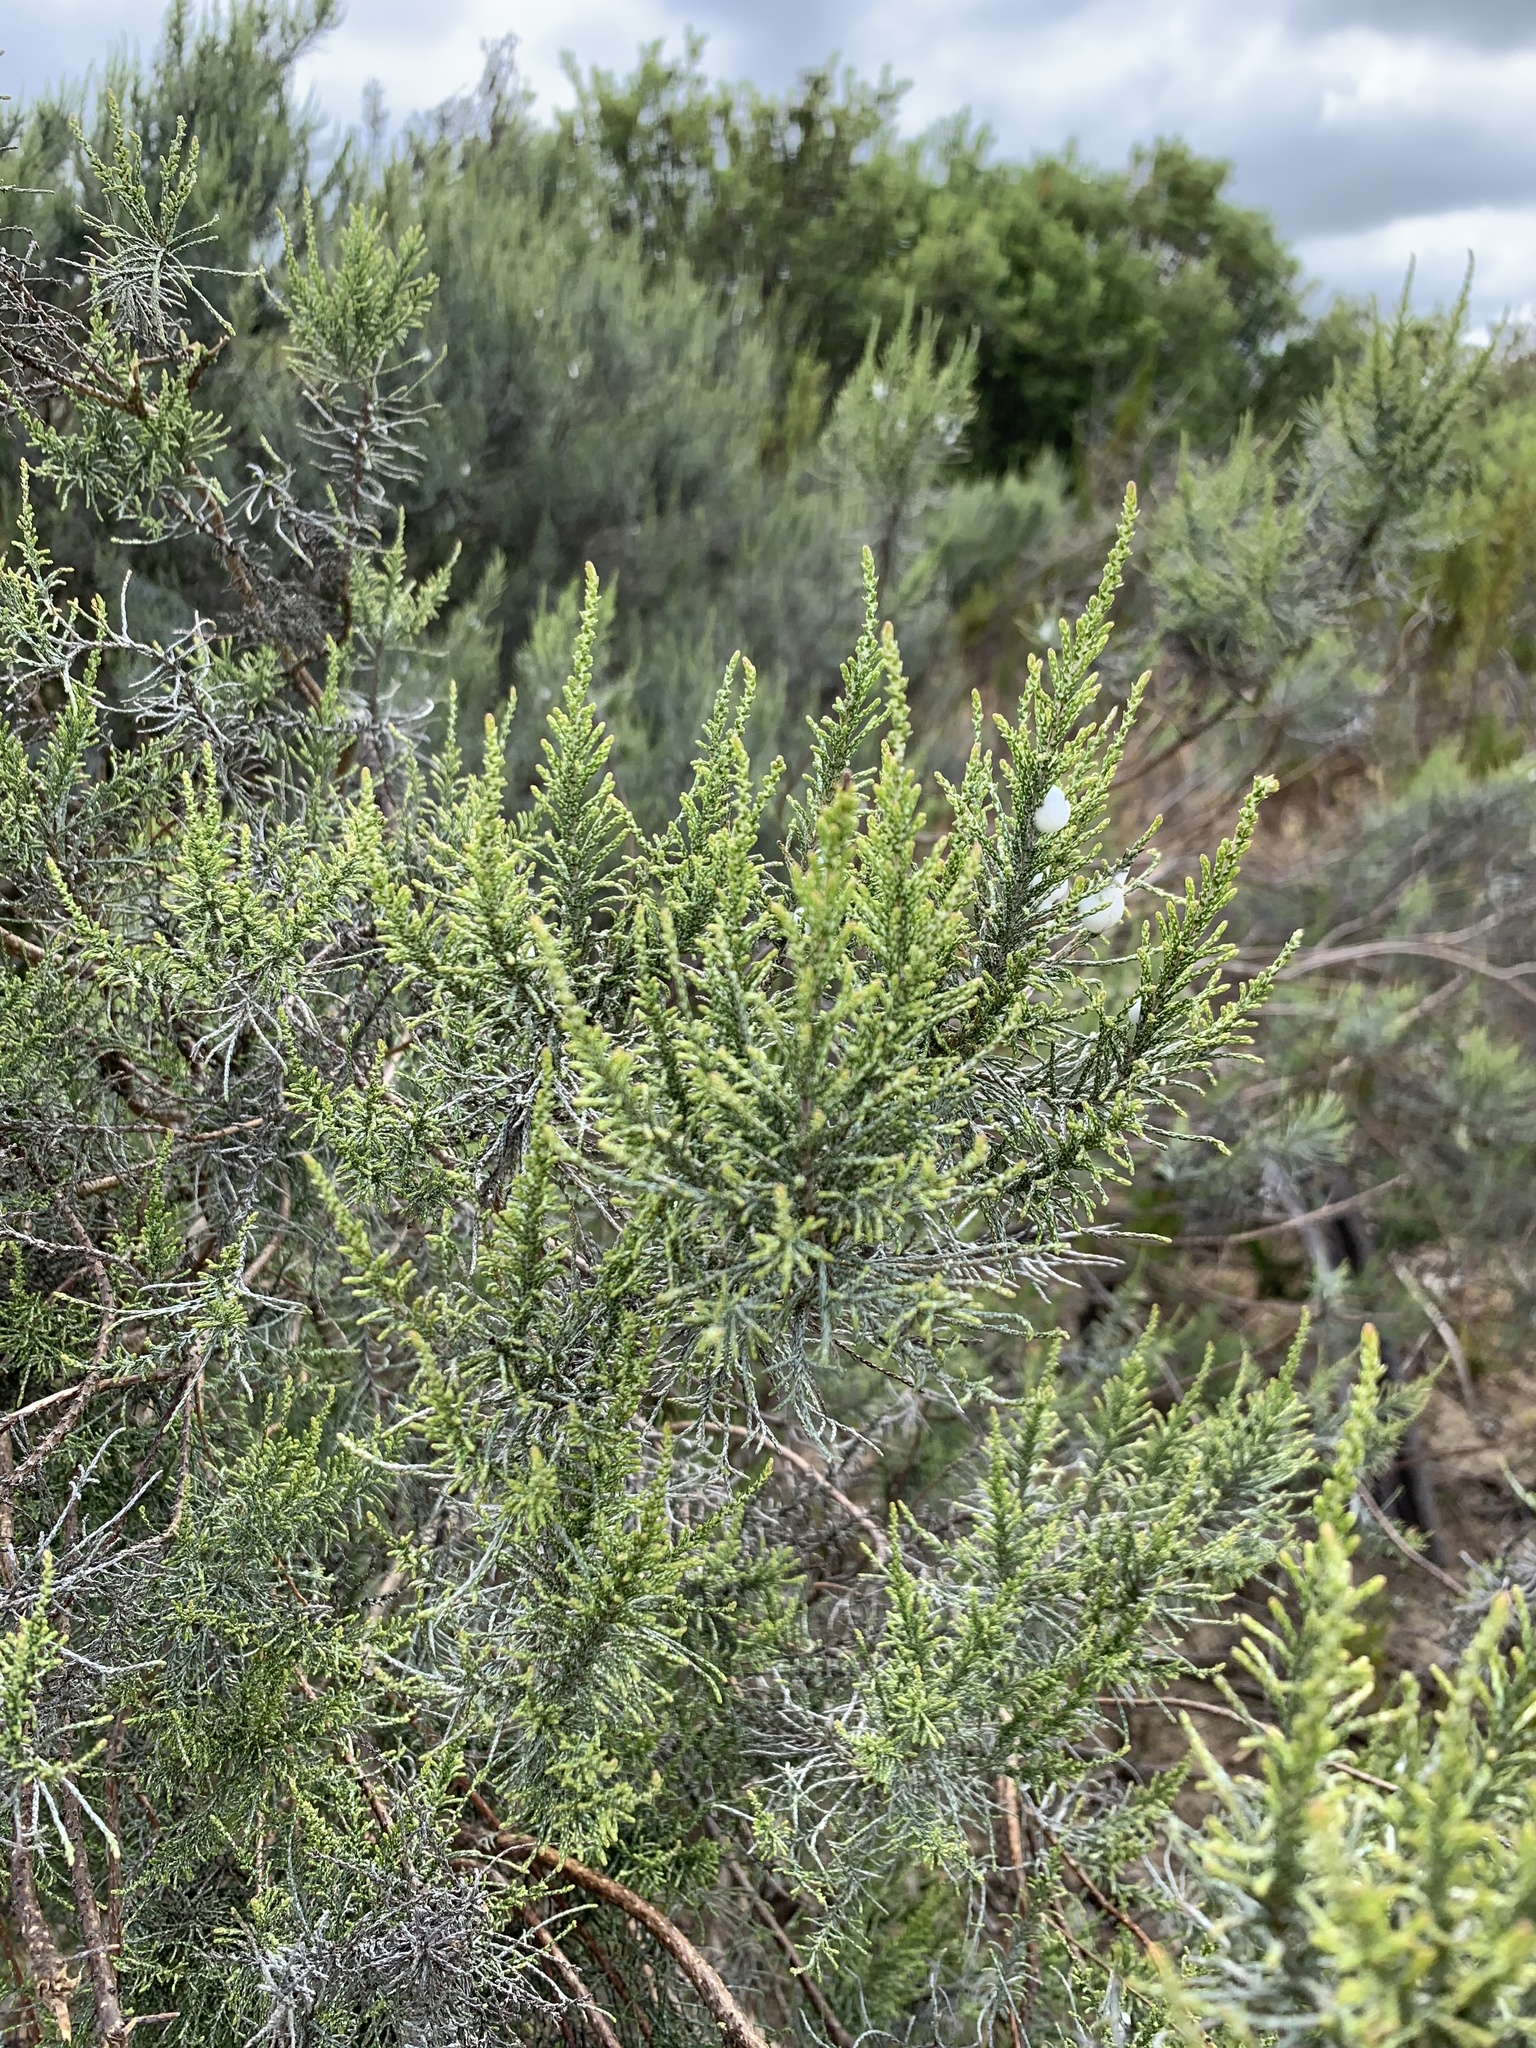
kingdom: Plantae
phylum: Tracheophyta
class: Magnoliopsida
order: Asterales
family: Asteraceae
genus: Dicerothamnus
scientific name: Dicerothamnus rhinocerotis
